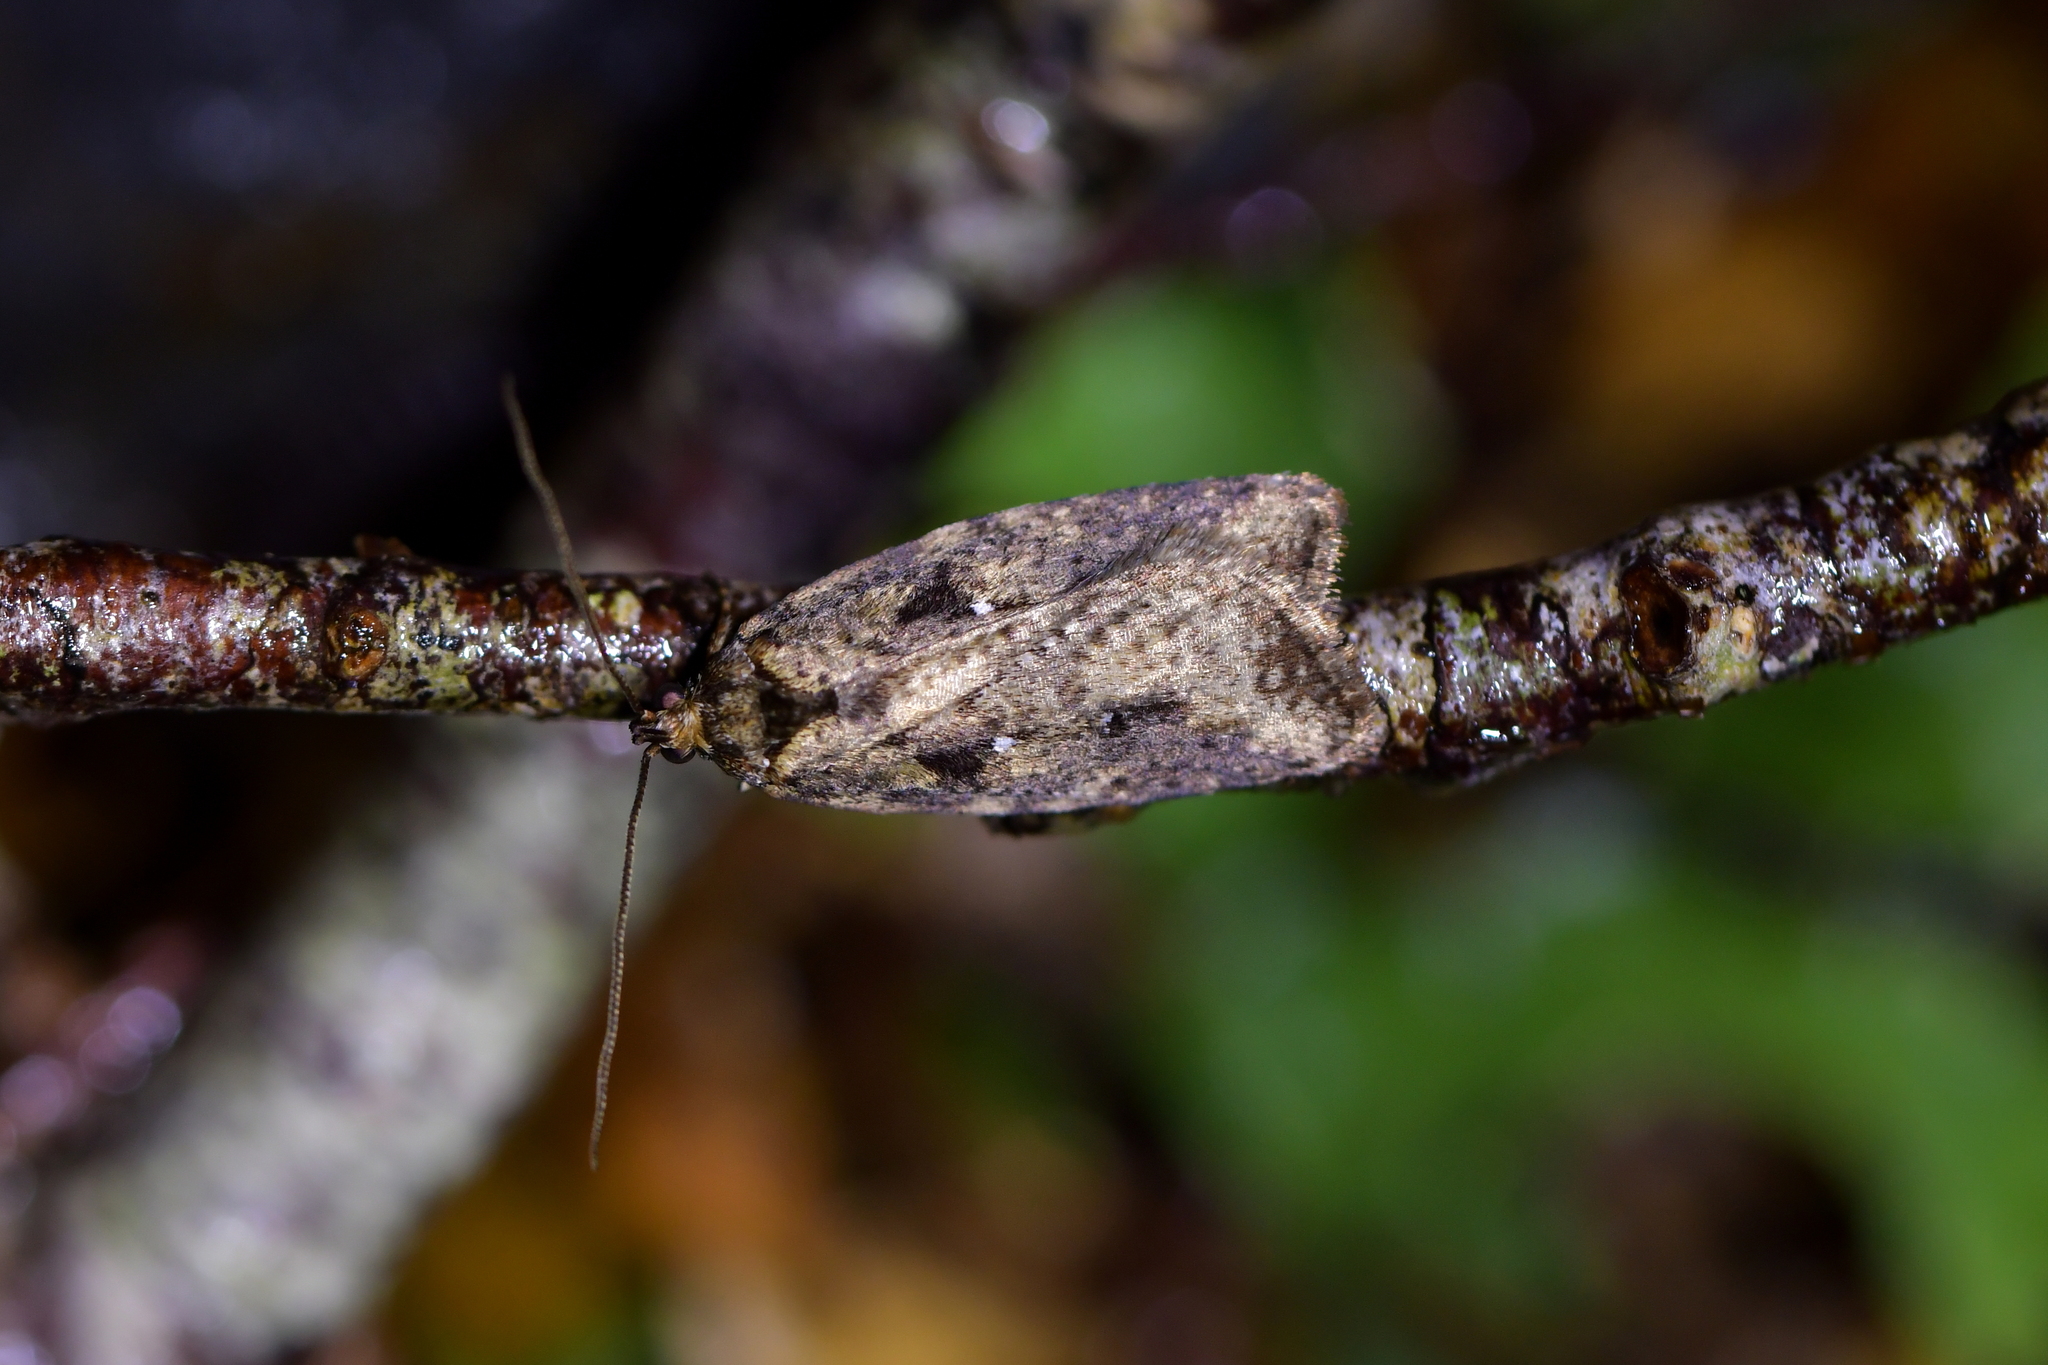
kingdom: Animalia
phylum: Arthropoda
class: Insecta
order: Lepidoptera
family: Oecophoridae
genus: Proteodes
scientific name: Proteodes profunda
